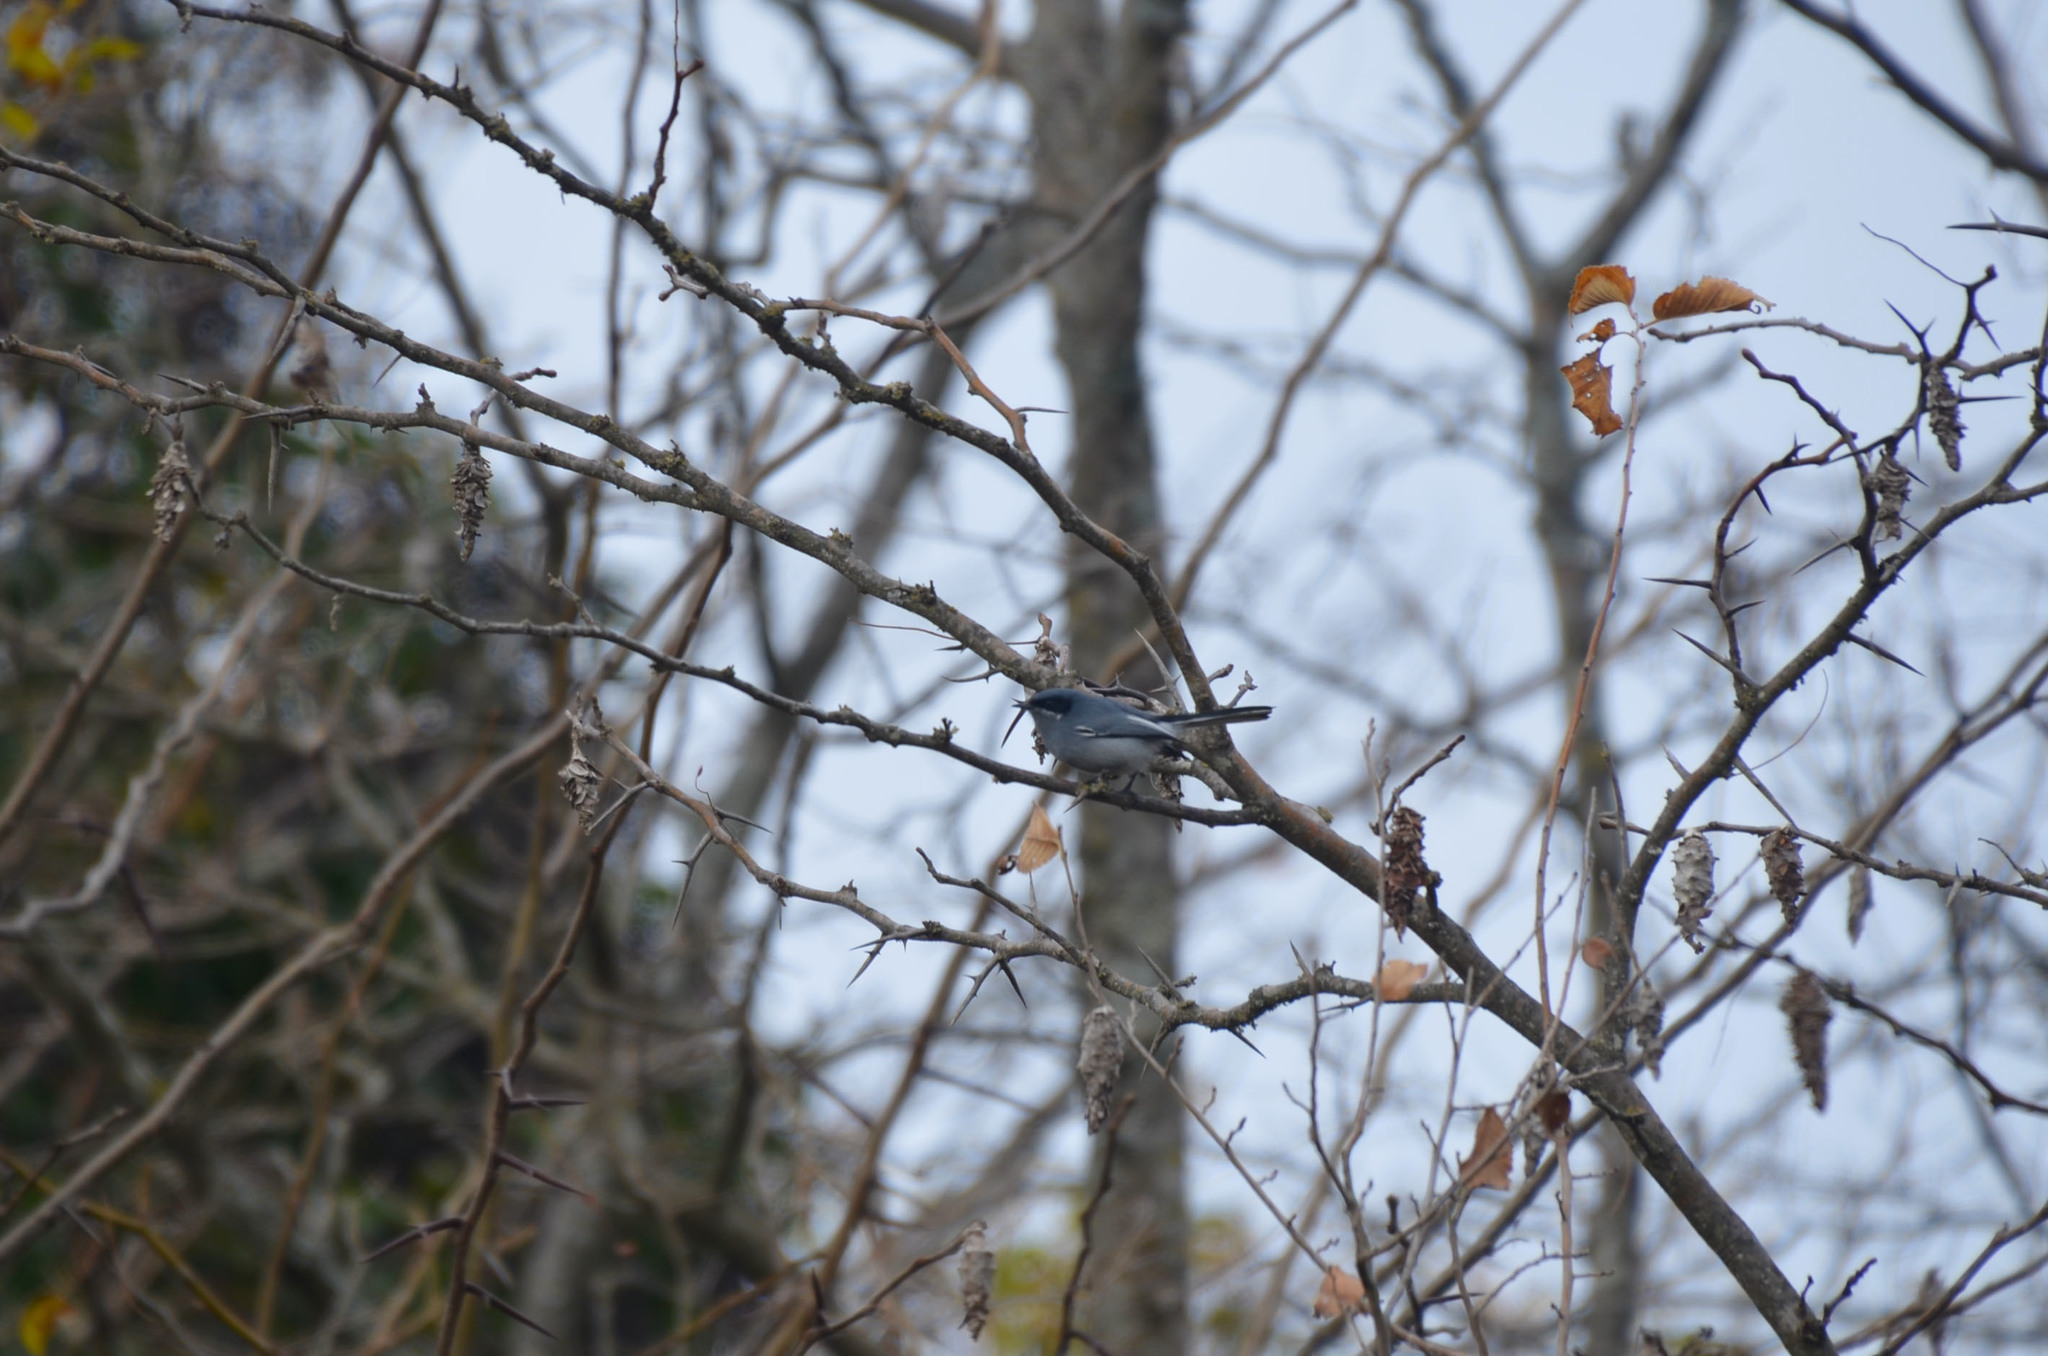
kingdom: Animalia
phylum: Chordata
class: Aves
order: Passeriformes
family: Polioptilidae
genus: Polioptila
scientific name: Polioptila dumicola
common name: Masked gnatcatcher
